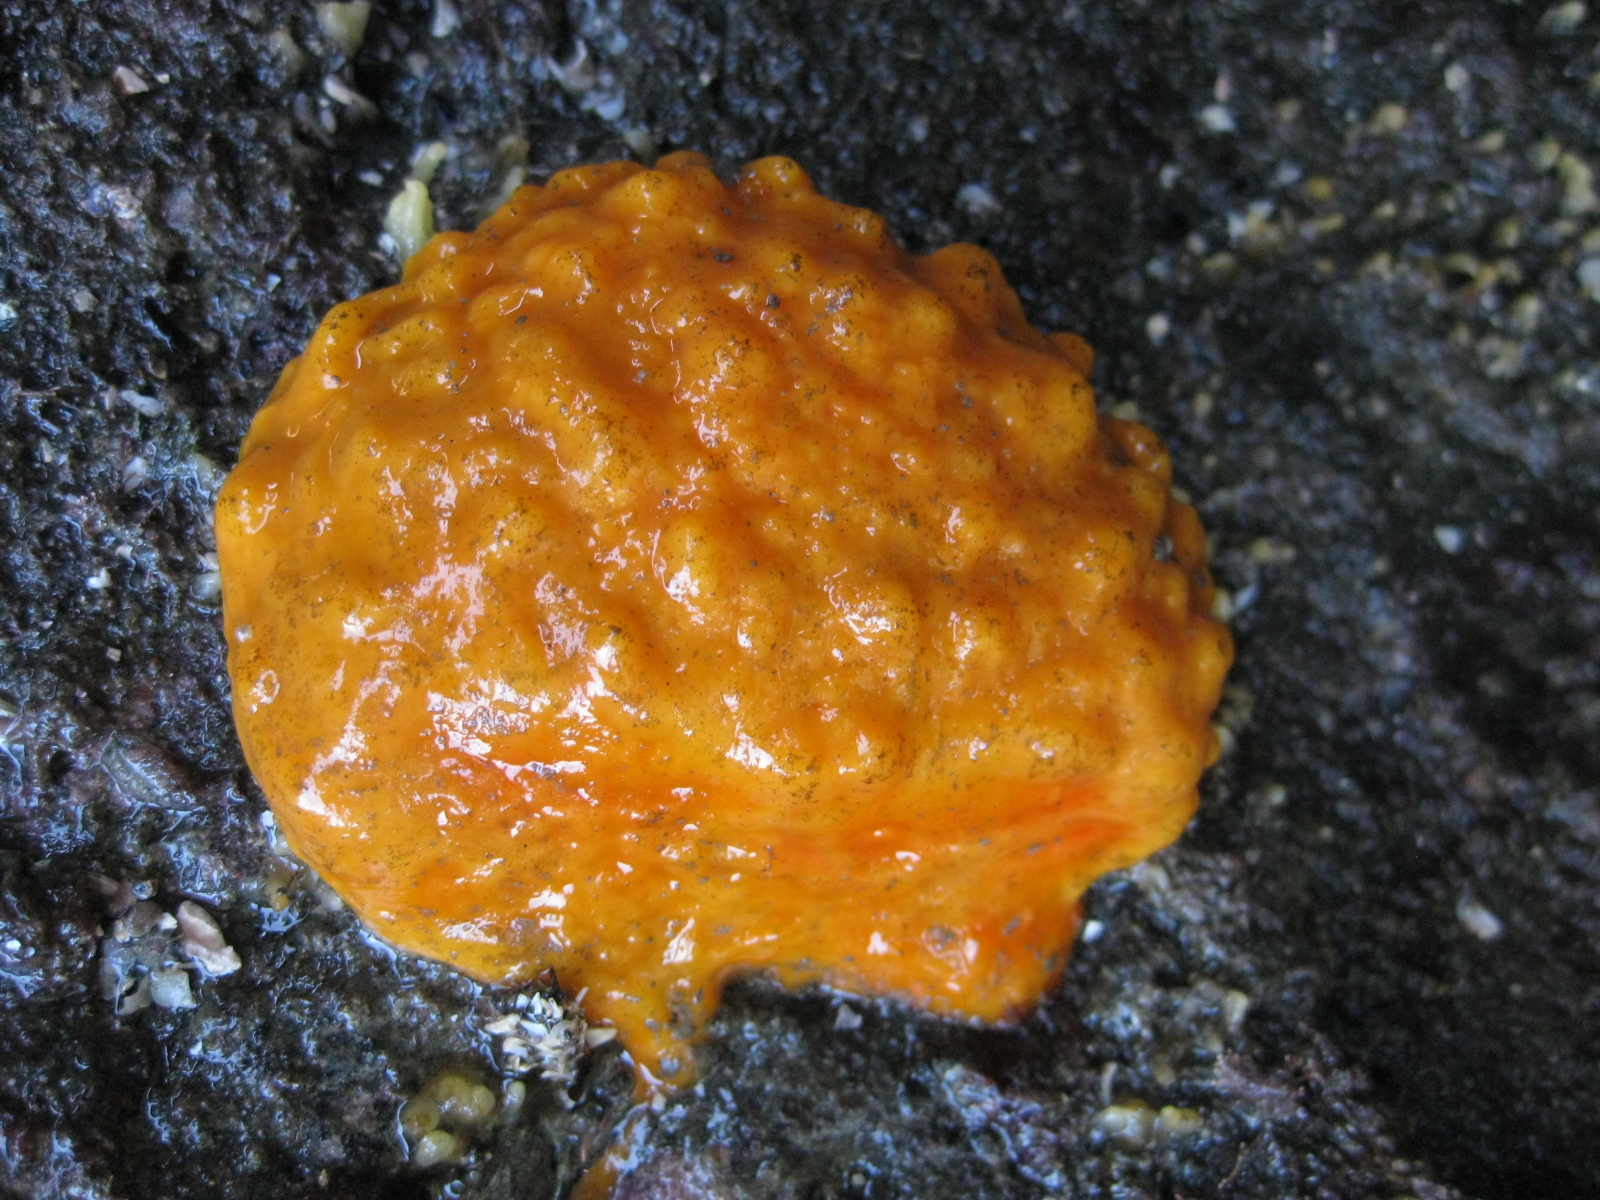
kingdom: Animalia
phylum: Porifera
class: Demospongiae
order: Polymastiida
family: Polymastiidae
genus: Polymastia
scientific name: Polymastia aurantia
